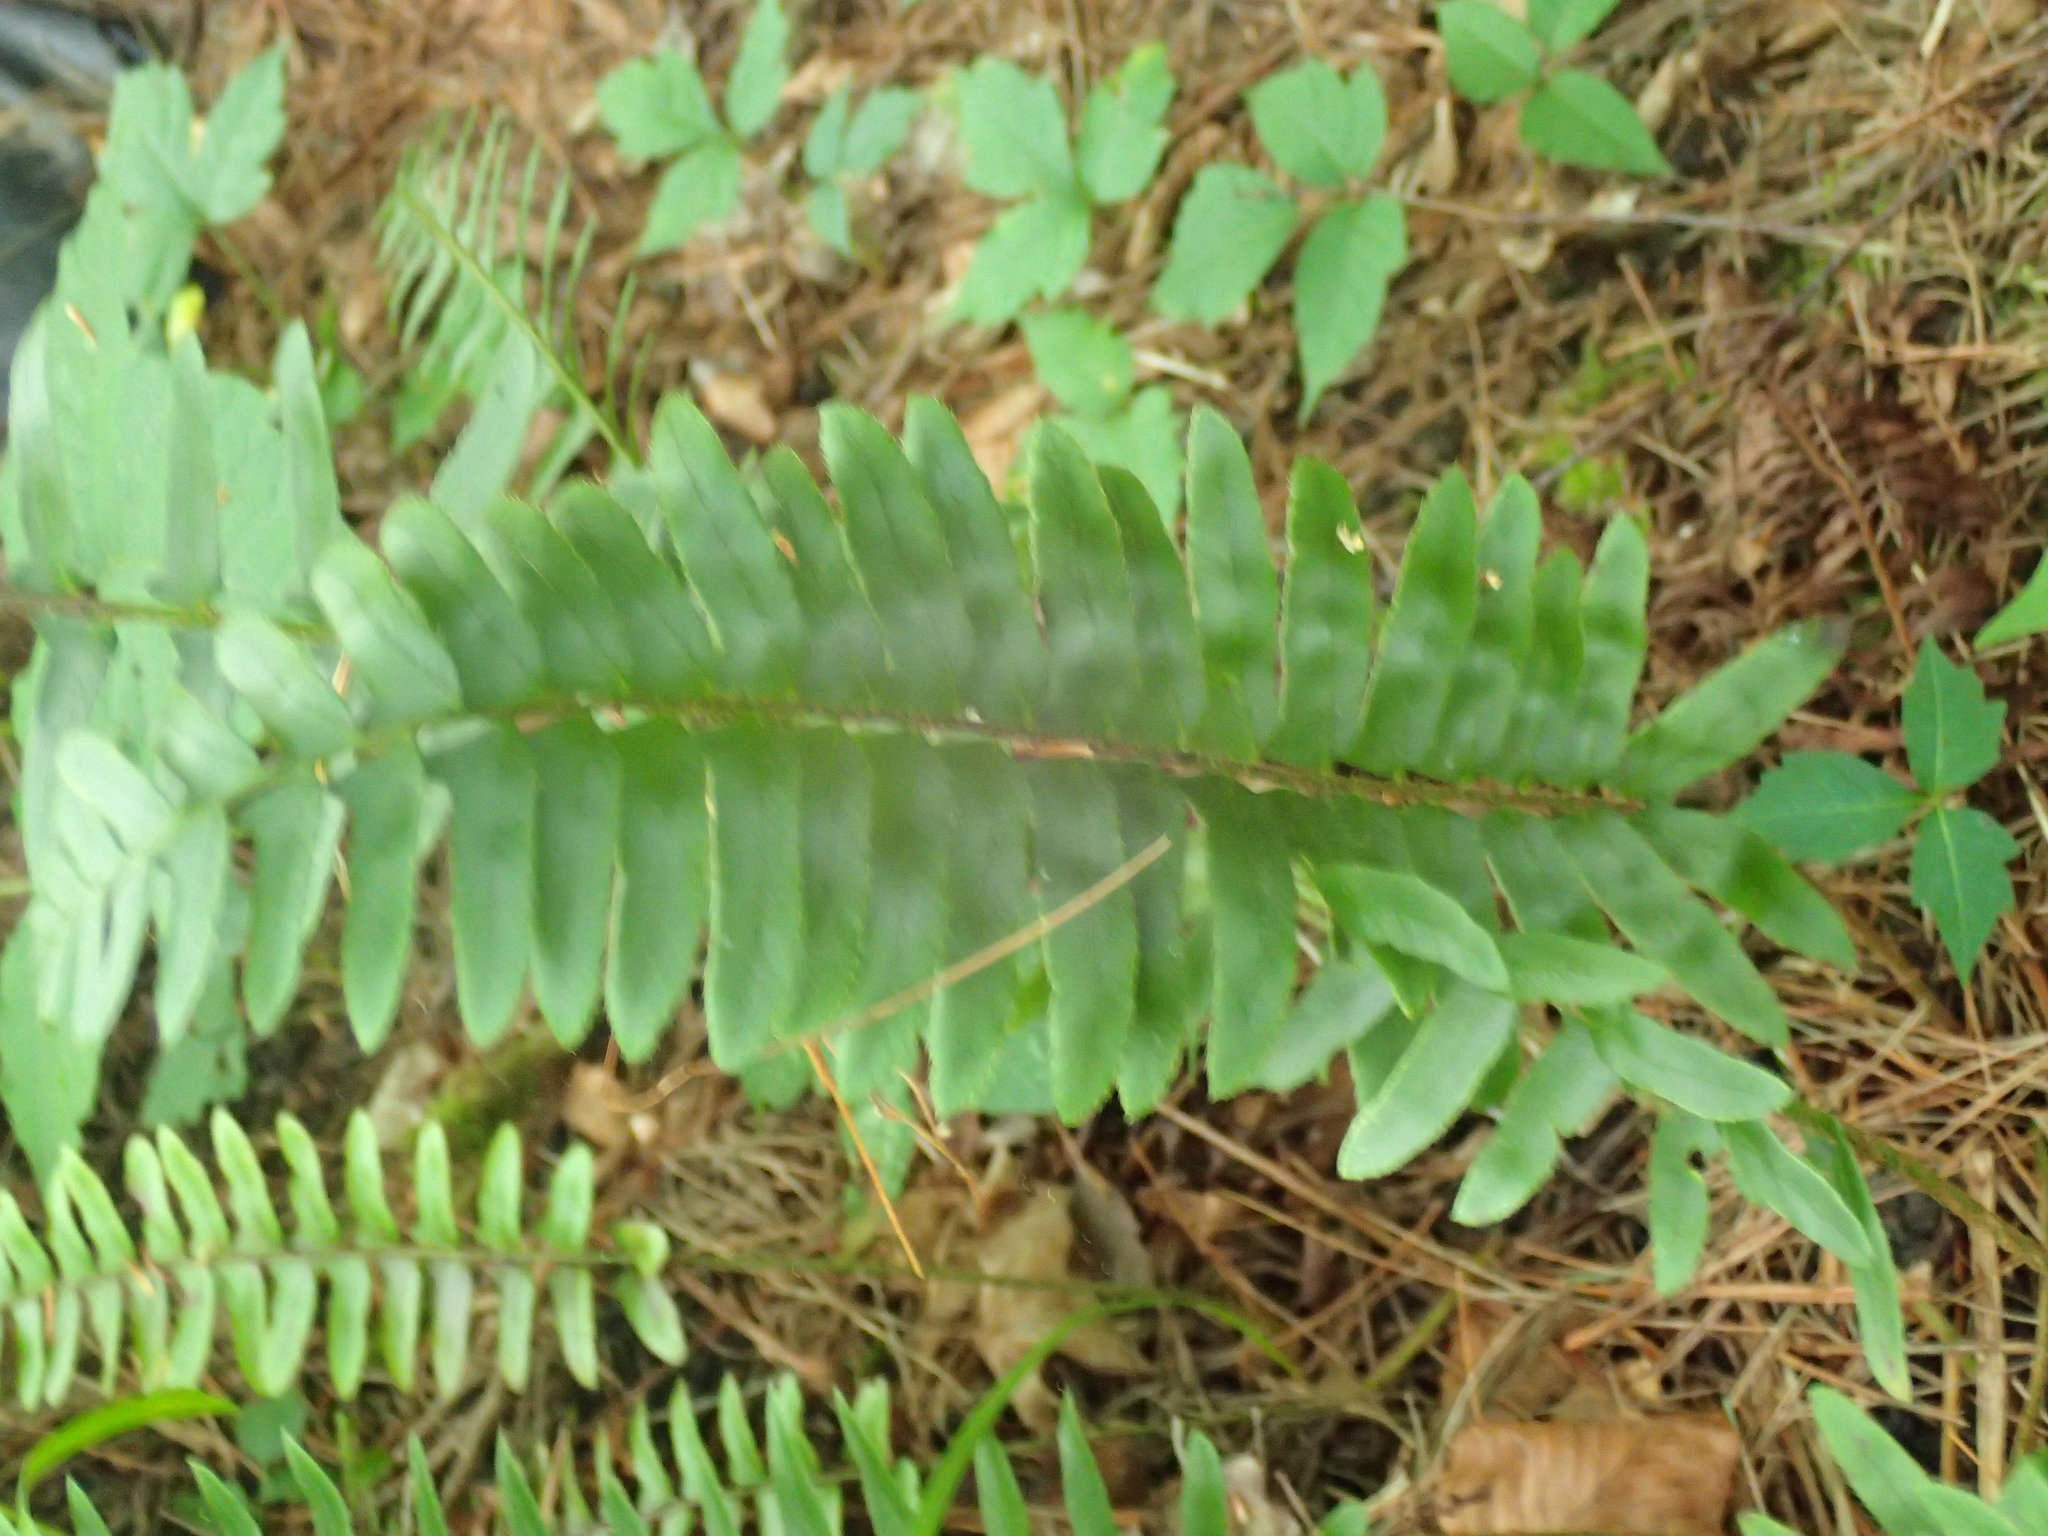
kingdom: Plantae
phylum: Tracheophyta
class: Polypodiopsida
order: Polypodiales
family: Dryopteridaceae
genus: Polystichum
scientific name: Polystichum acrostichoides
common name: Christmas fern
